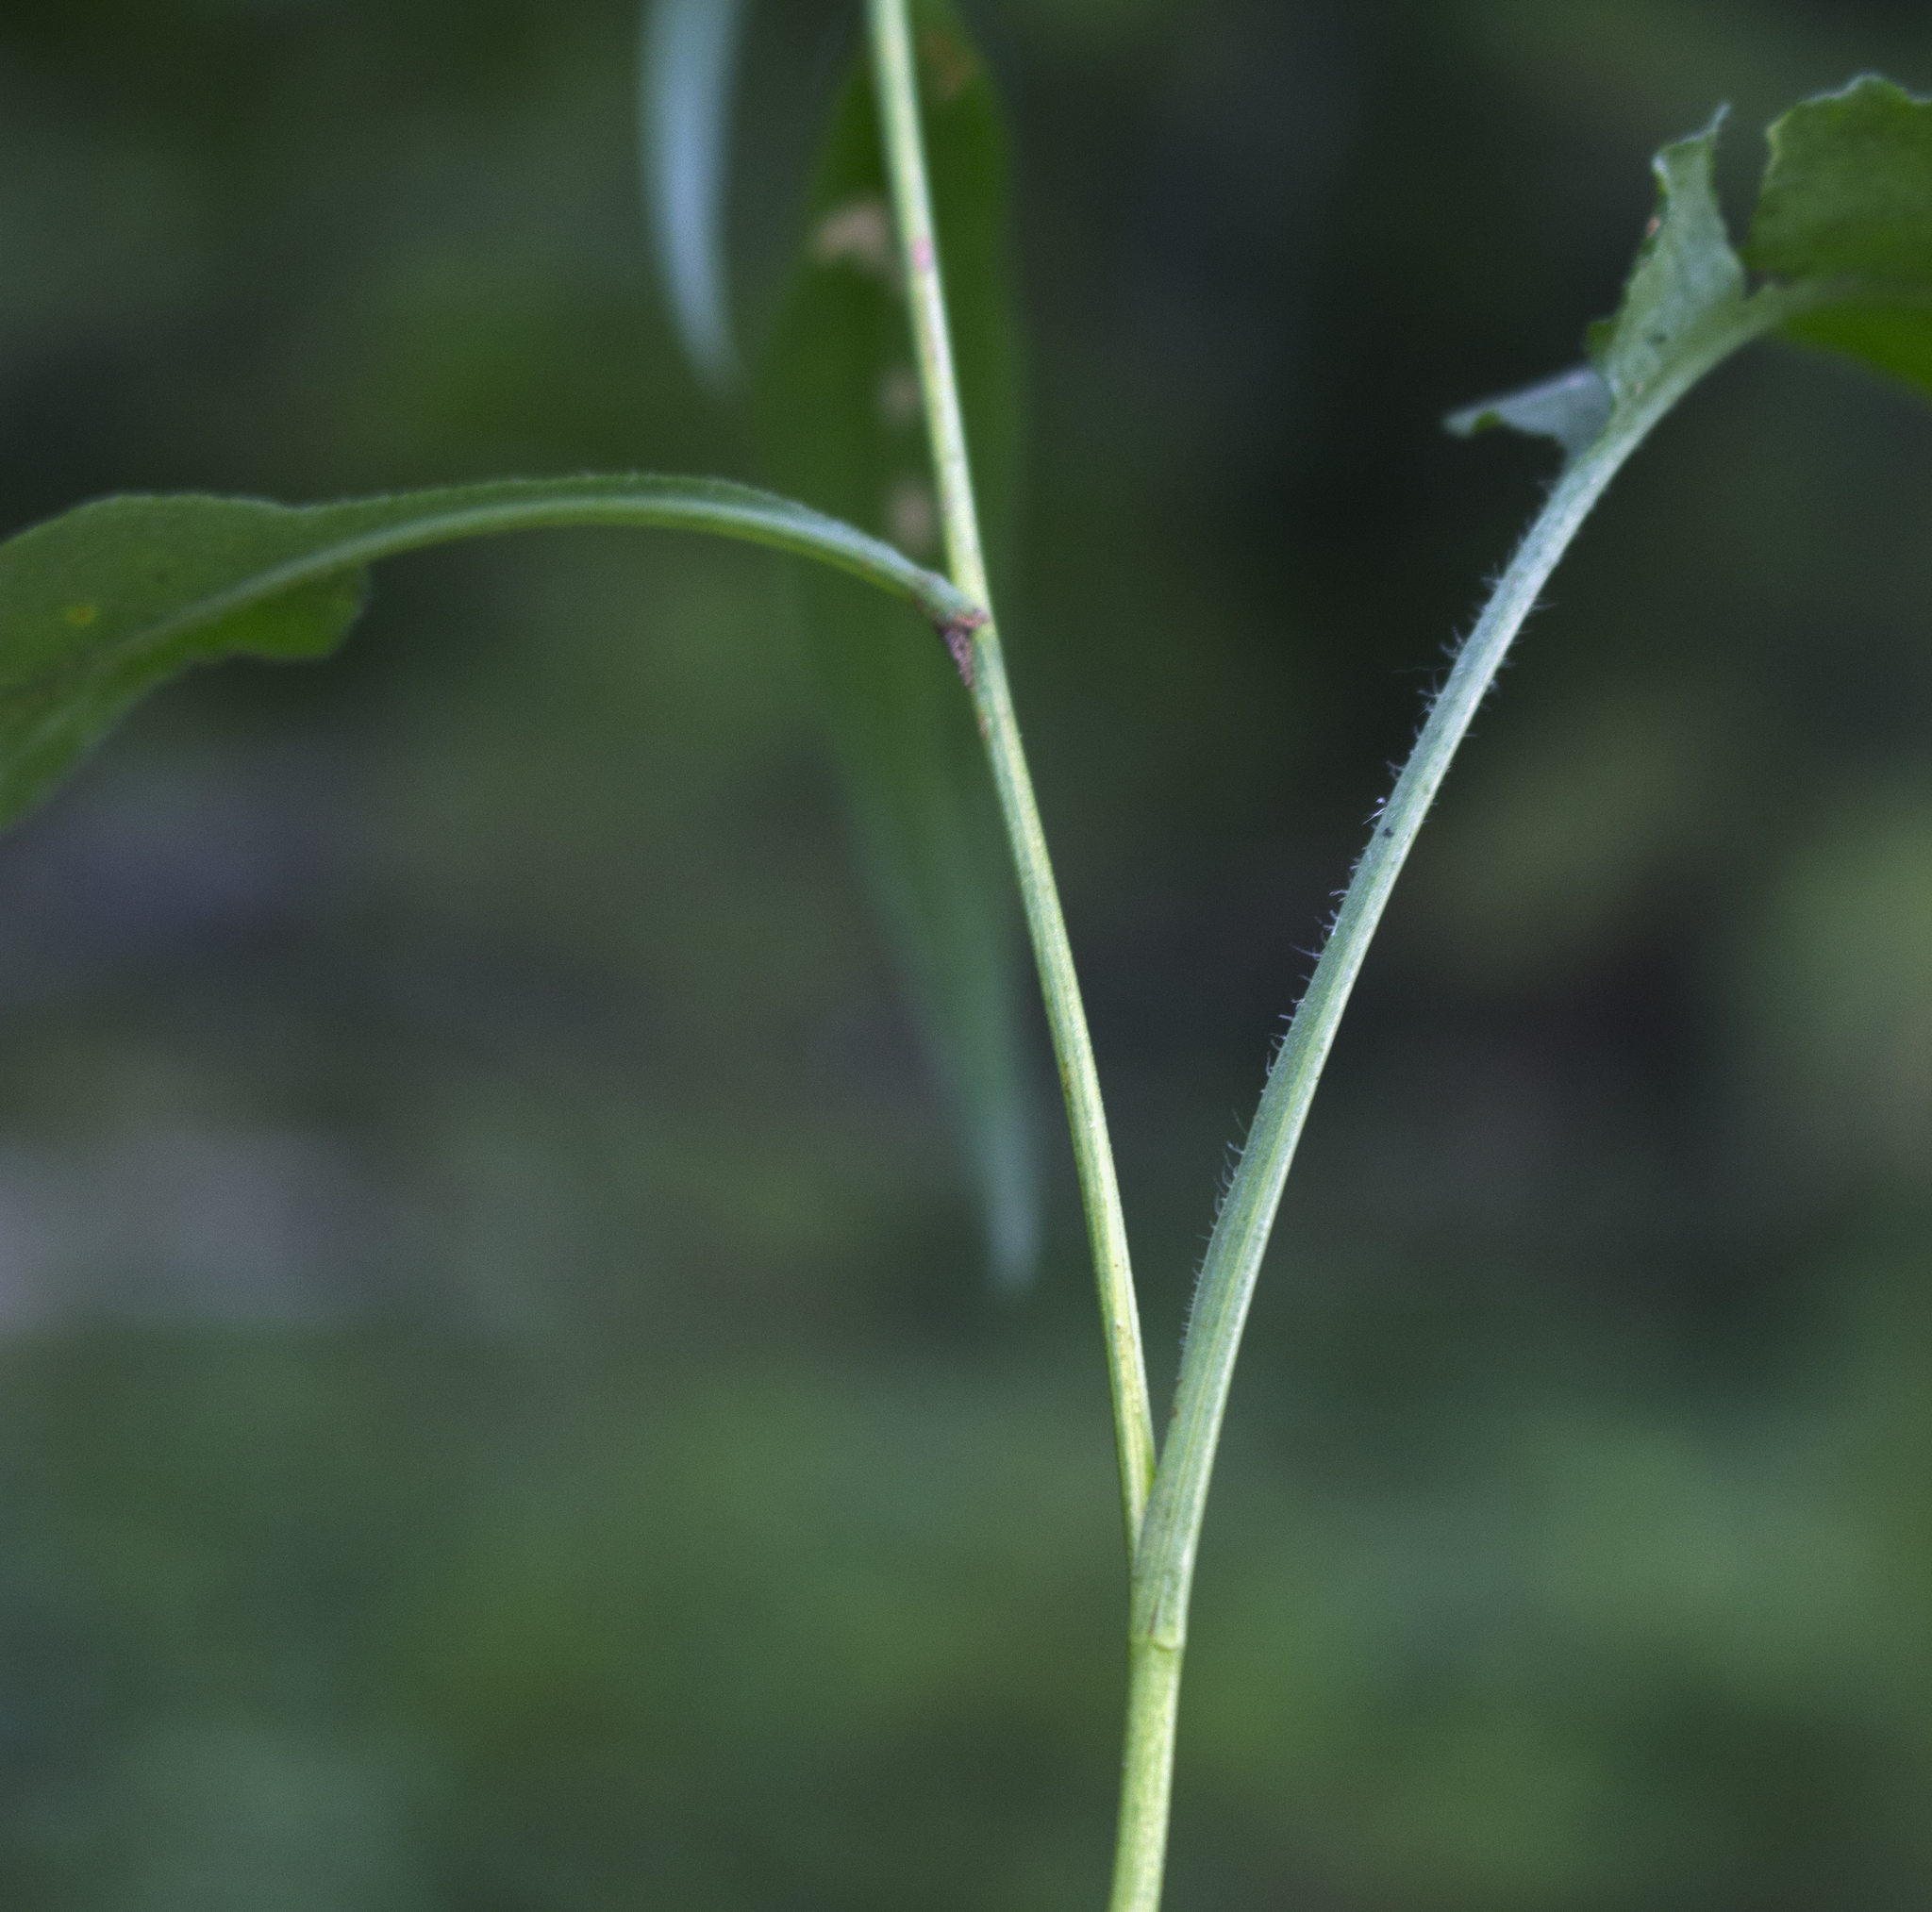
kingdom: Plantae
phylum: Tracheophyta
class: Magnoliopsida
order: Asterales
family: Asteraceae
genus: Symphyotrichum
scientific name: Symphyotrichum oolentangiense
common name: Azure aster
